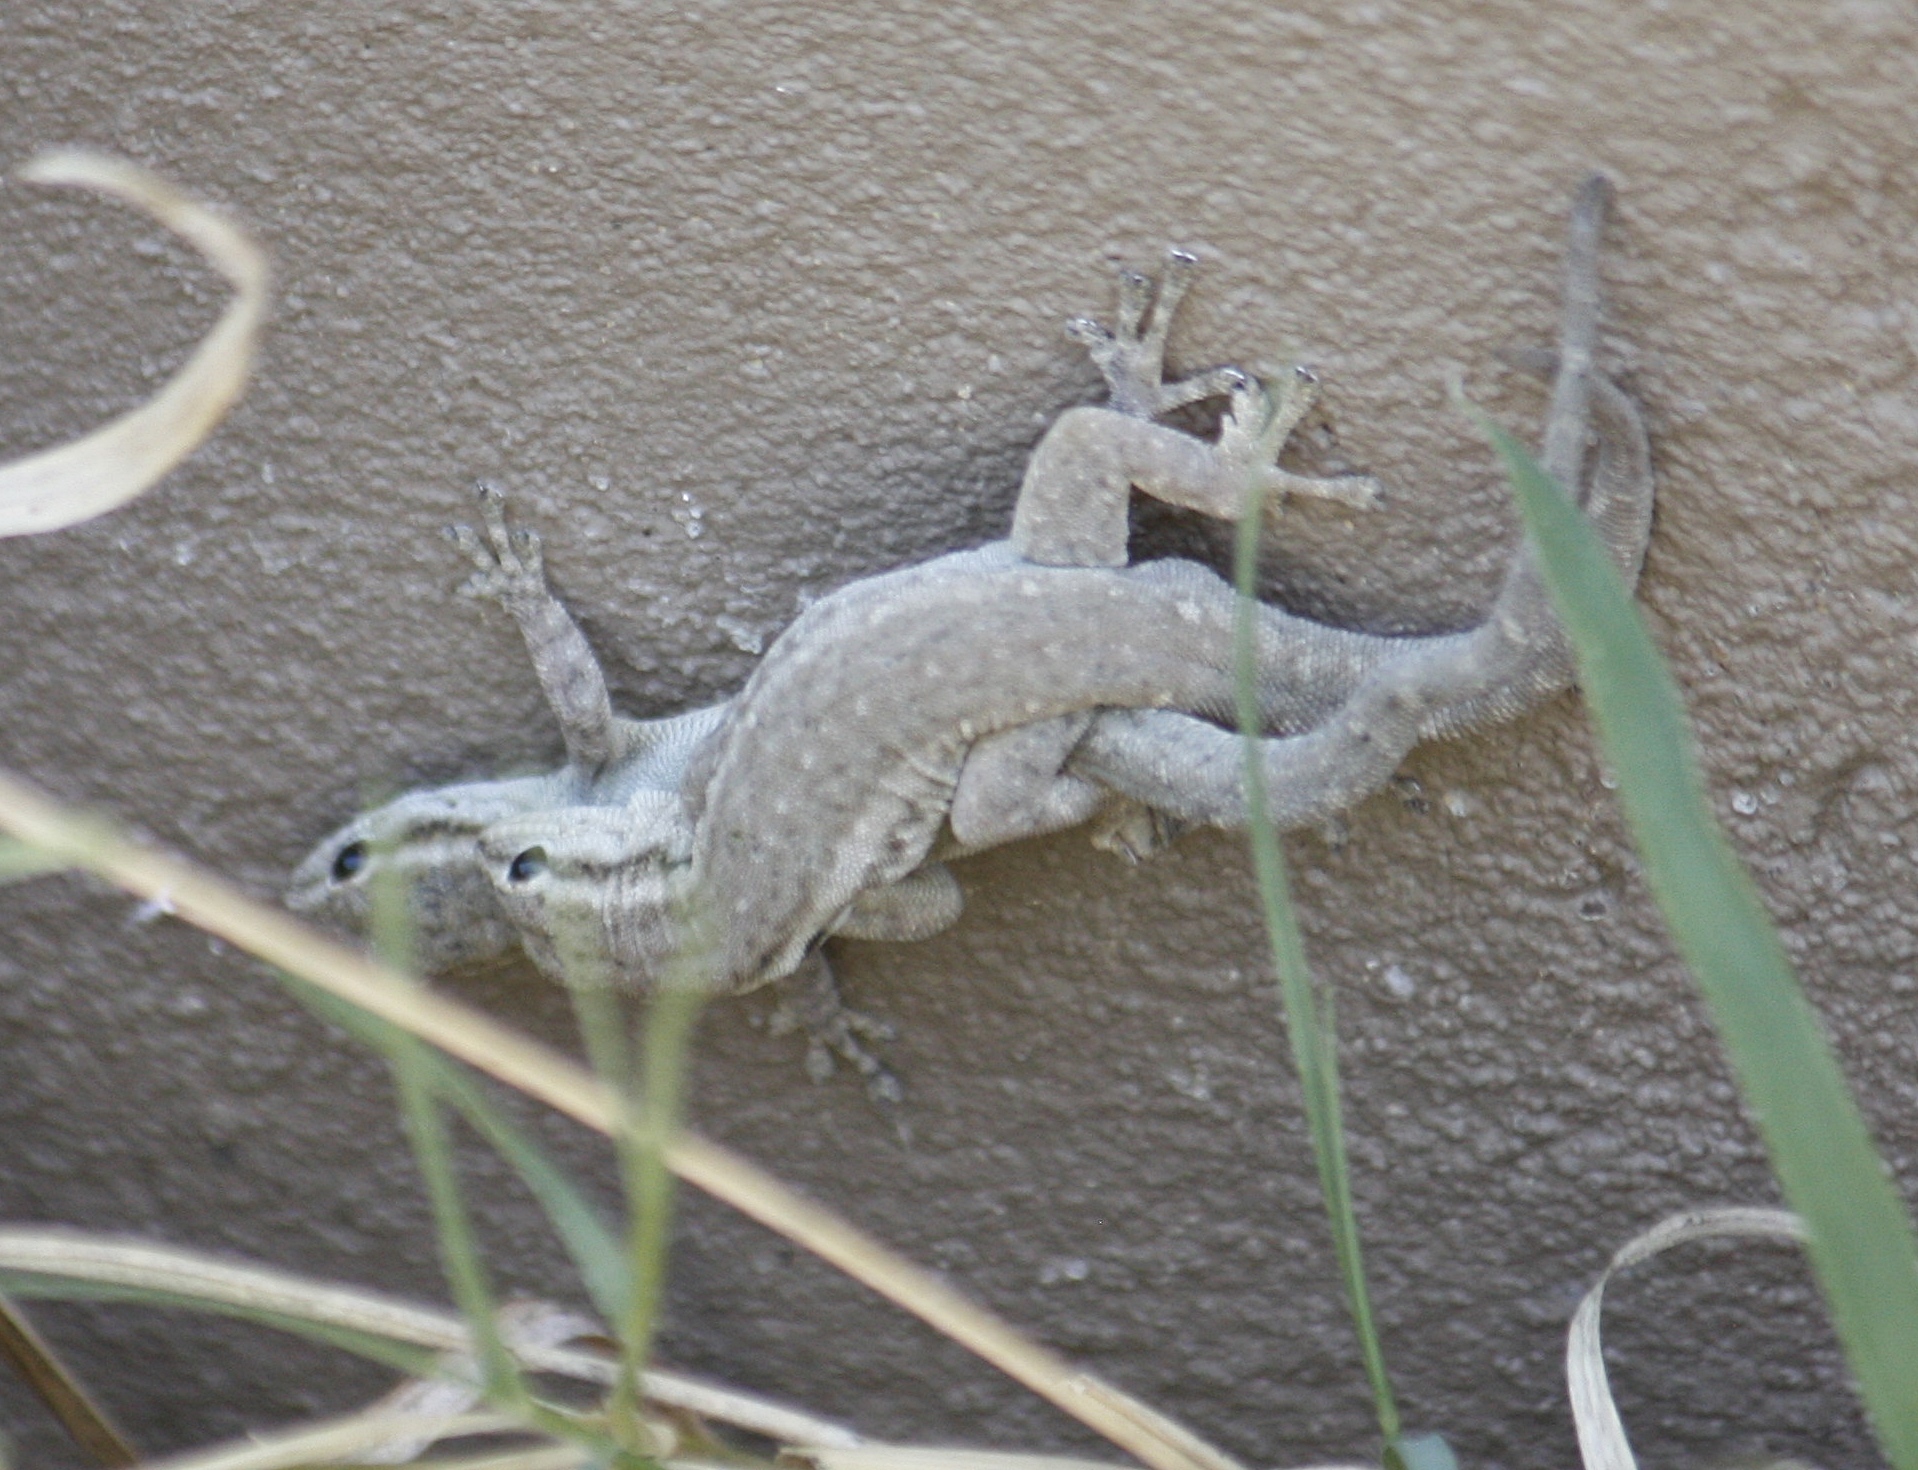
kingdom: Animalia
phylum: Chordata
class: Squamata
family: Gekkonidae
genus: Lygodactylus
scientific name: Lygodactylus capensis
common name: Cape dwarf gecko
